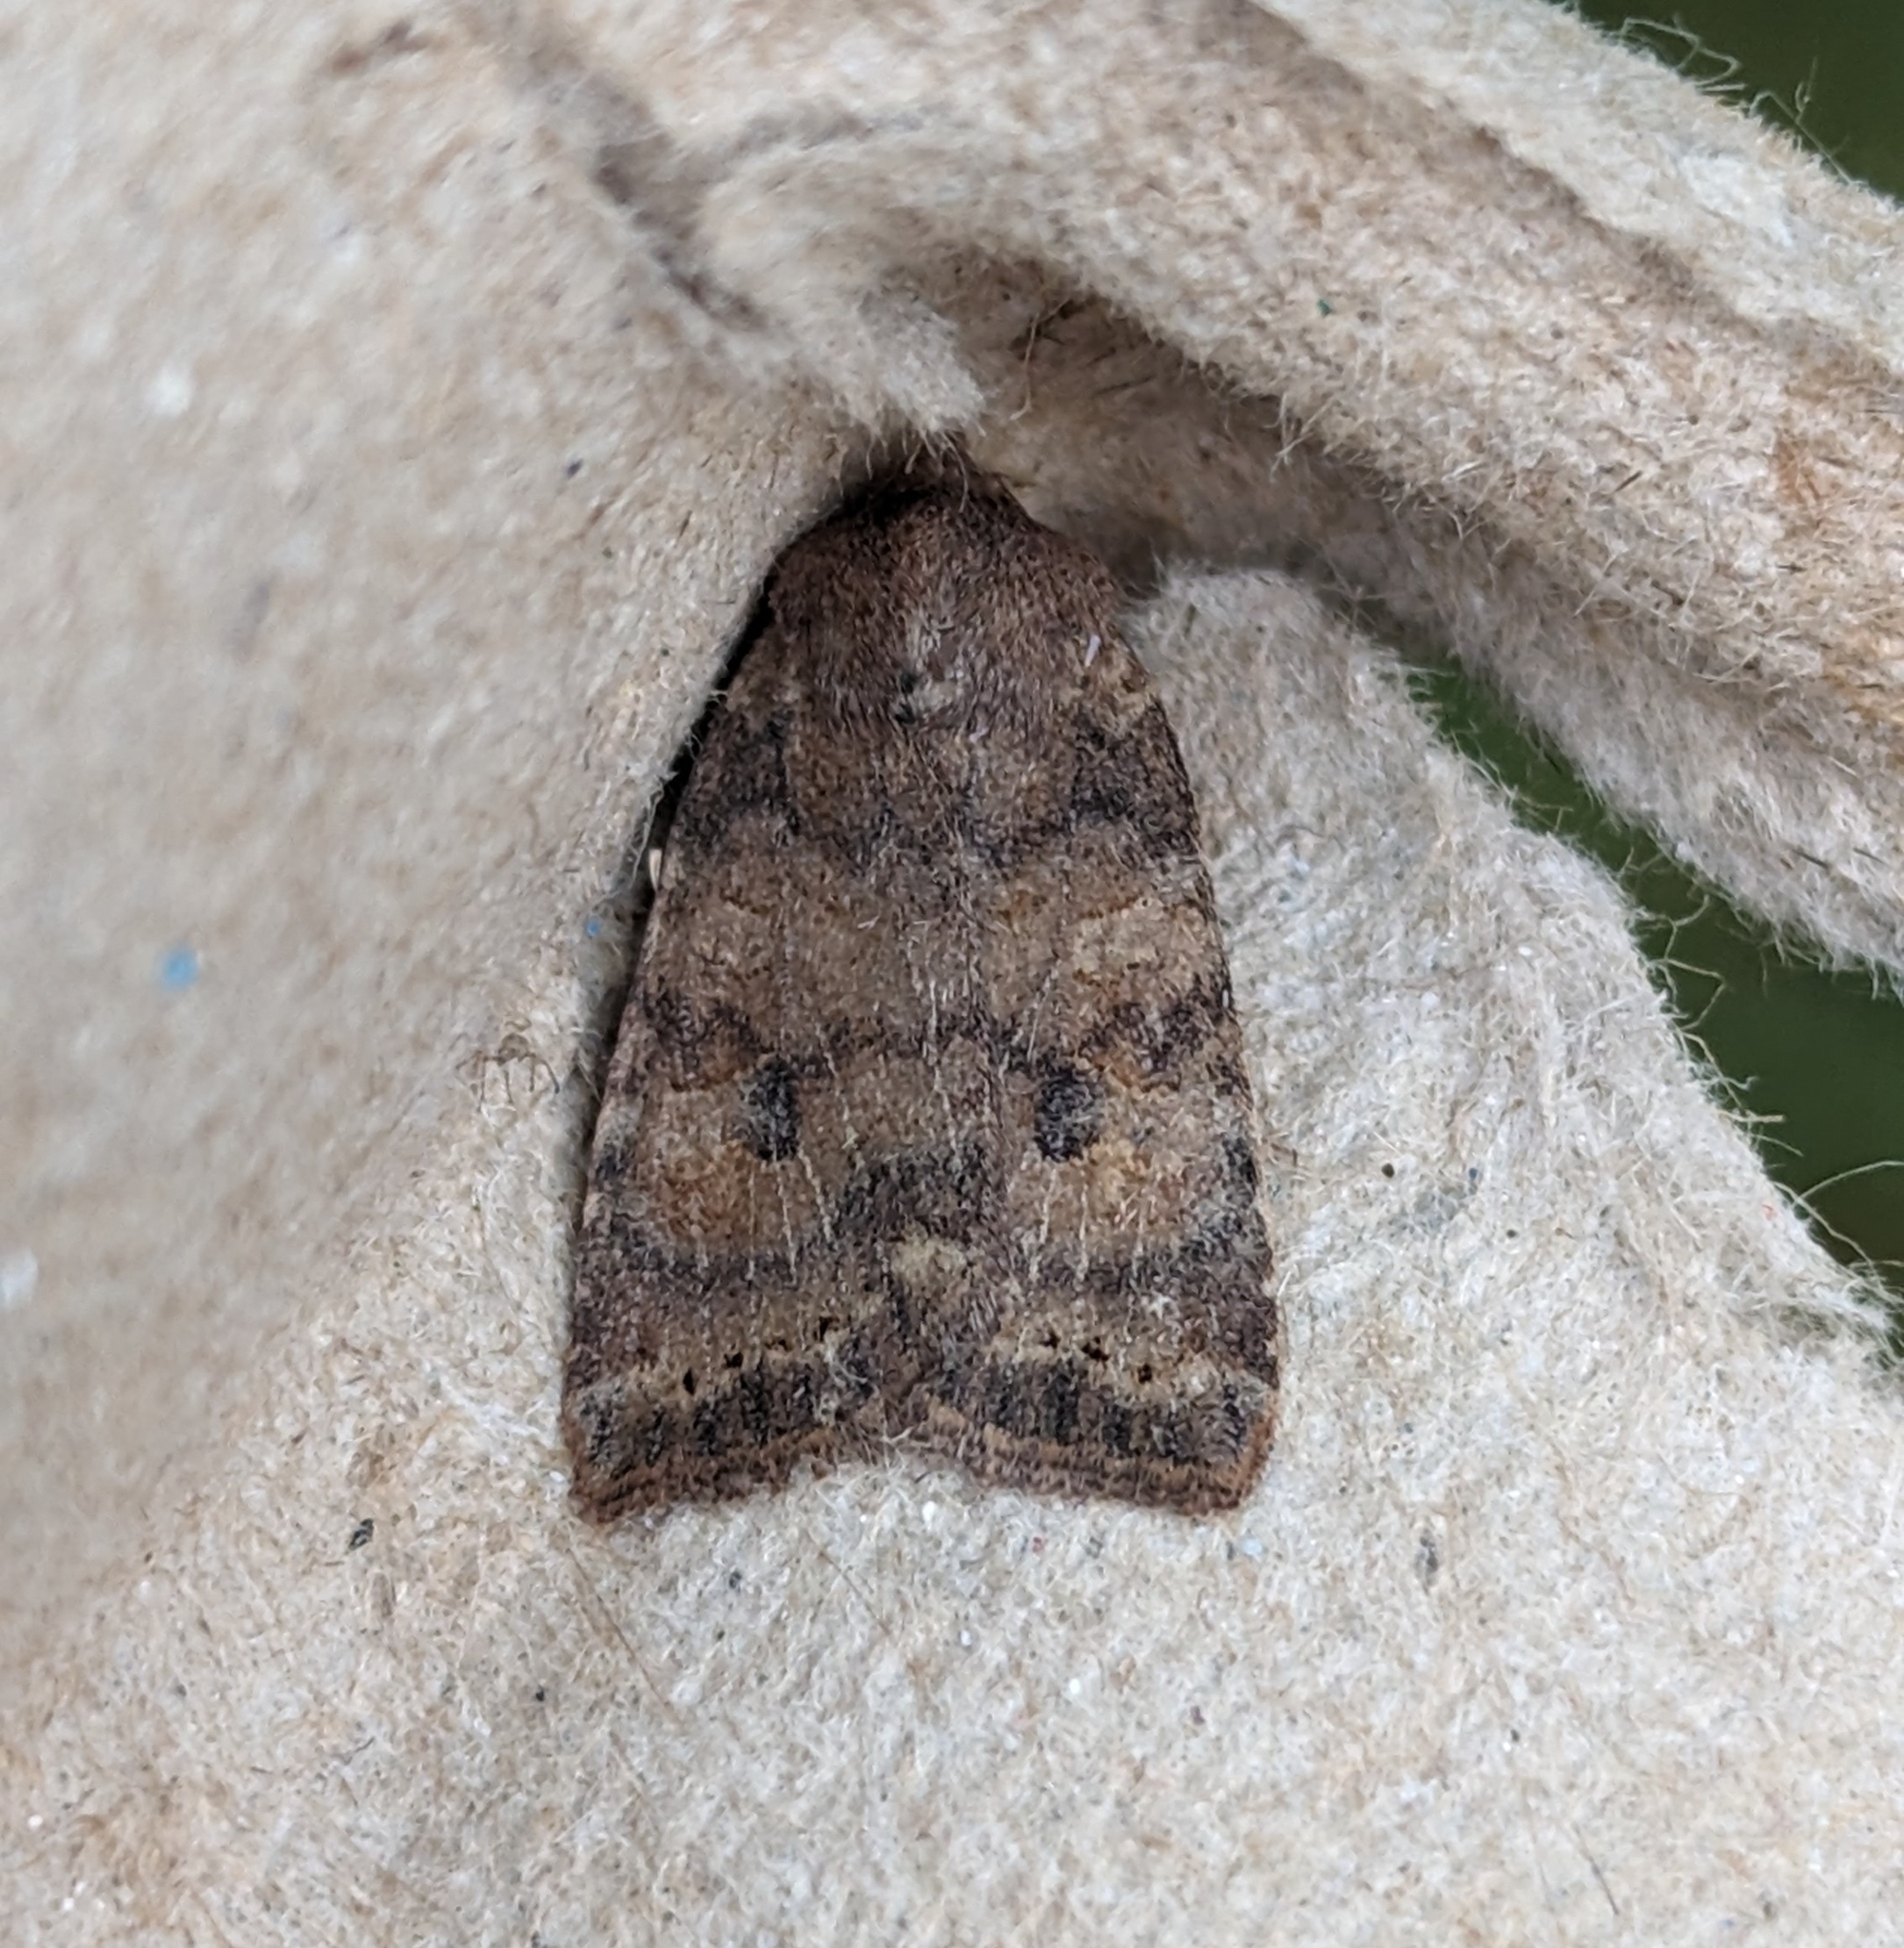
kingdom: Animalia
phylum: Arthropoda
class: Insecta
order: Lepidoptera
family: Noctuidae
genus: Anathix
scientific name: Anathix puta
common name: Puta sallow
